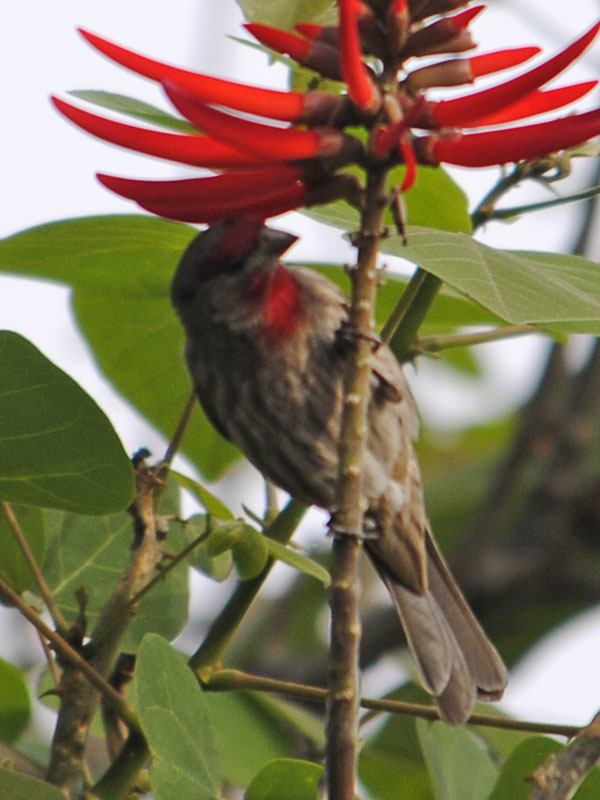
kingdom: Animalia
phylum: Chordata
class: Aves
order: Passeriformes
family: Fringillidae
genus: Haemorhous
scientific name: Haemorhous mexicanus
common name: House finch
